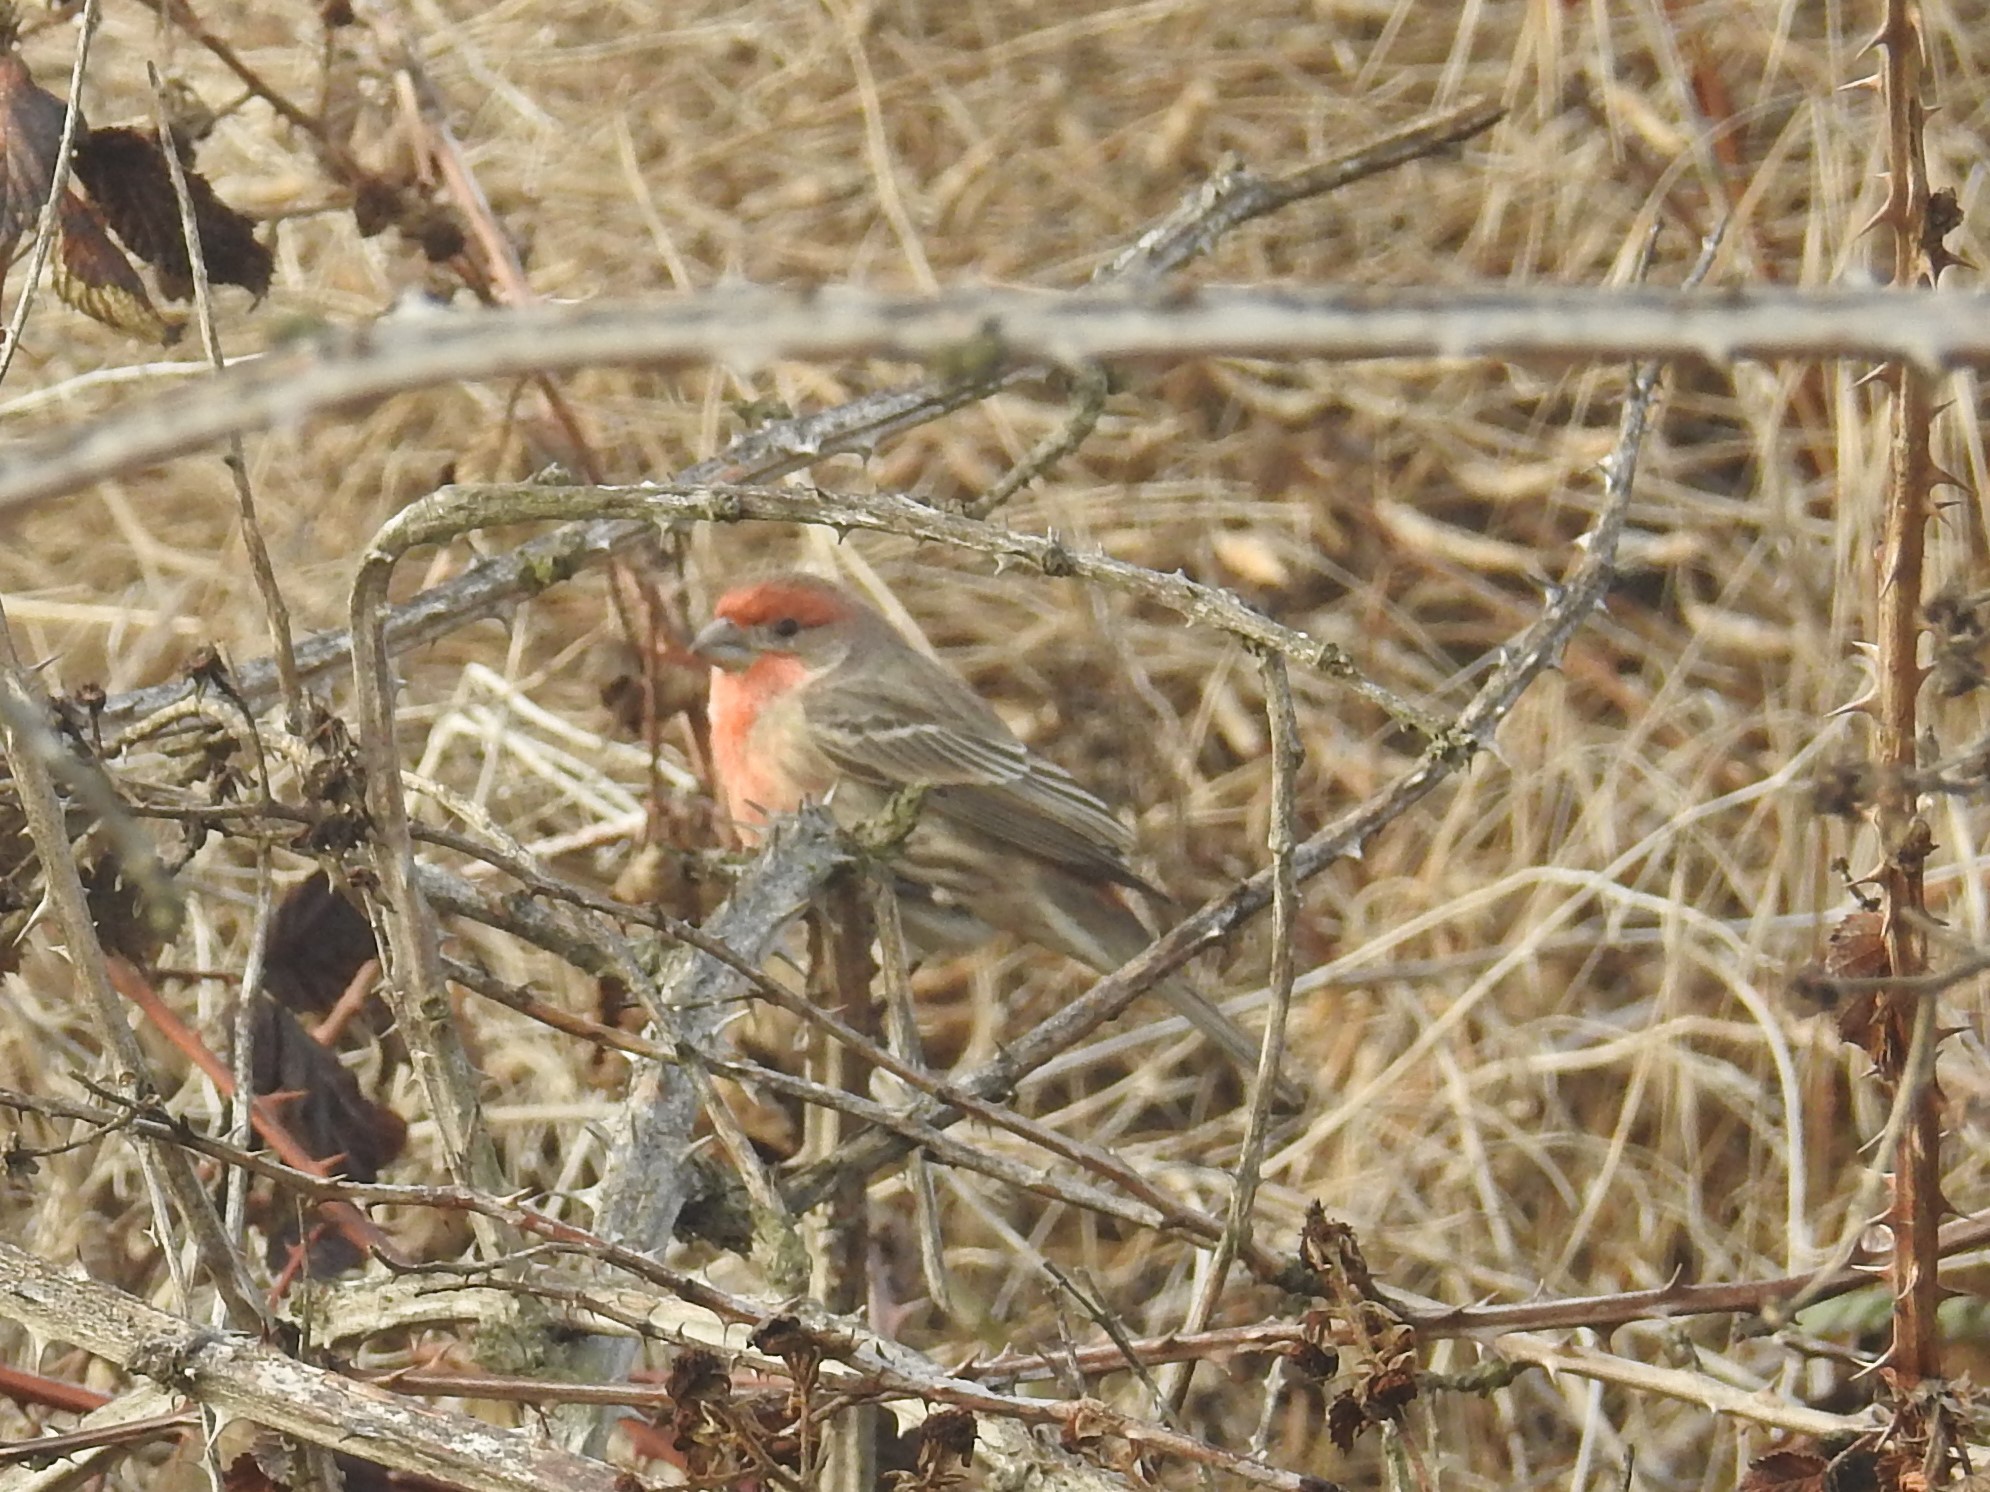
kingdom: Animalia
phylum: Chordata
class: Aves
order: Passeriformes
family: Fringillidae
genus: Haemorhous
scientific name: Haemorhous mexicanus
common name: House finch
